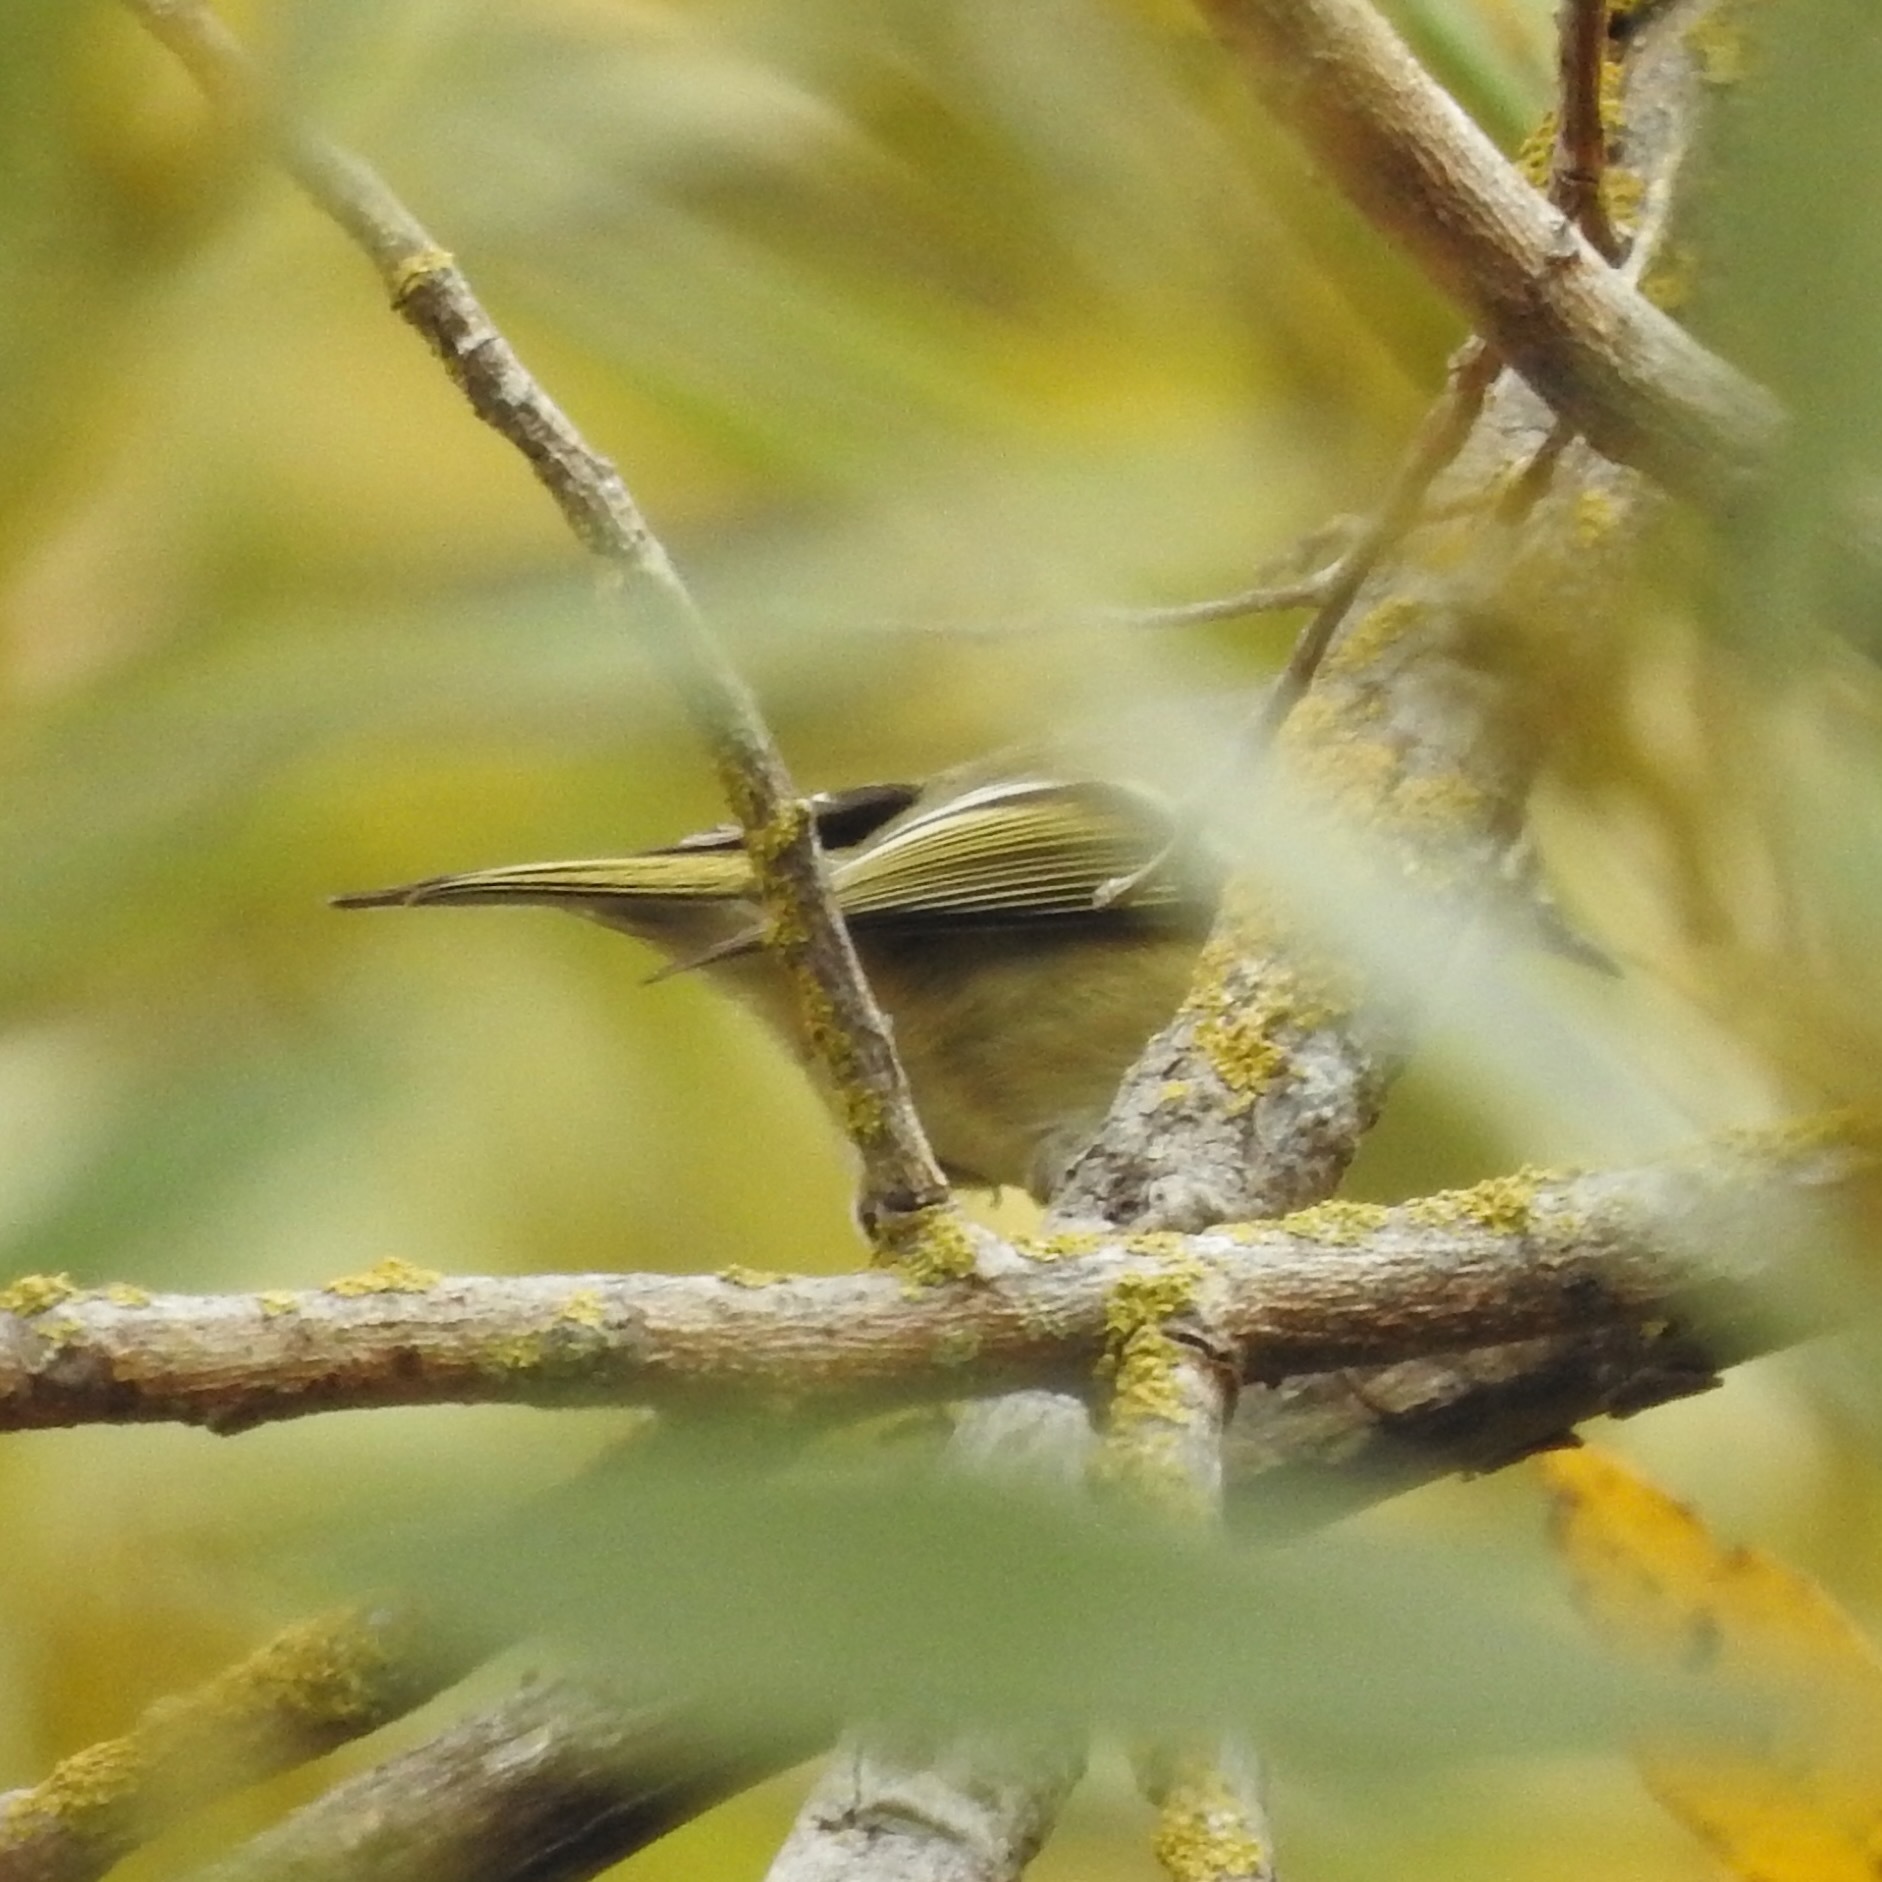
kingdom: Animalia
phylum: Chordata
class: Aves
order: Passeriformes
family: Regulidae
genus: Regulus
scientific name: Regulus calendula
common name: Ruby-crowned kinglet
